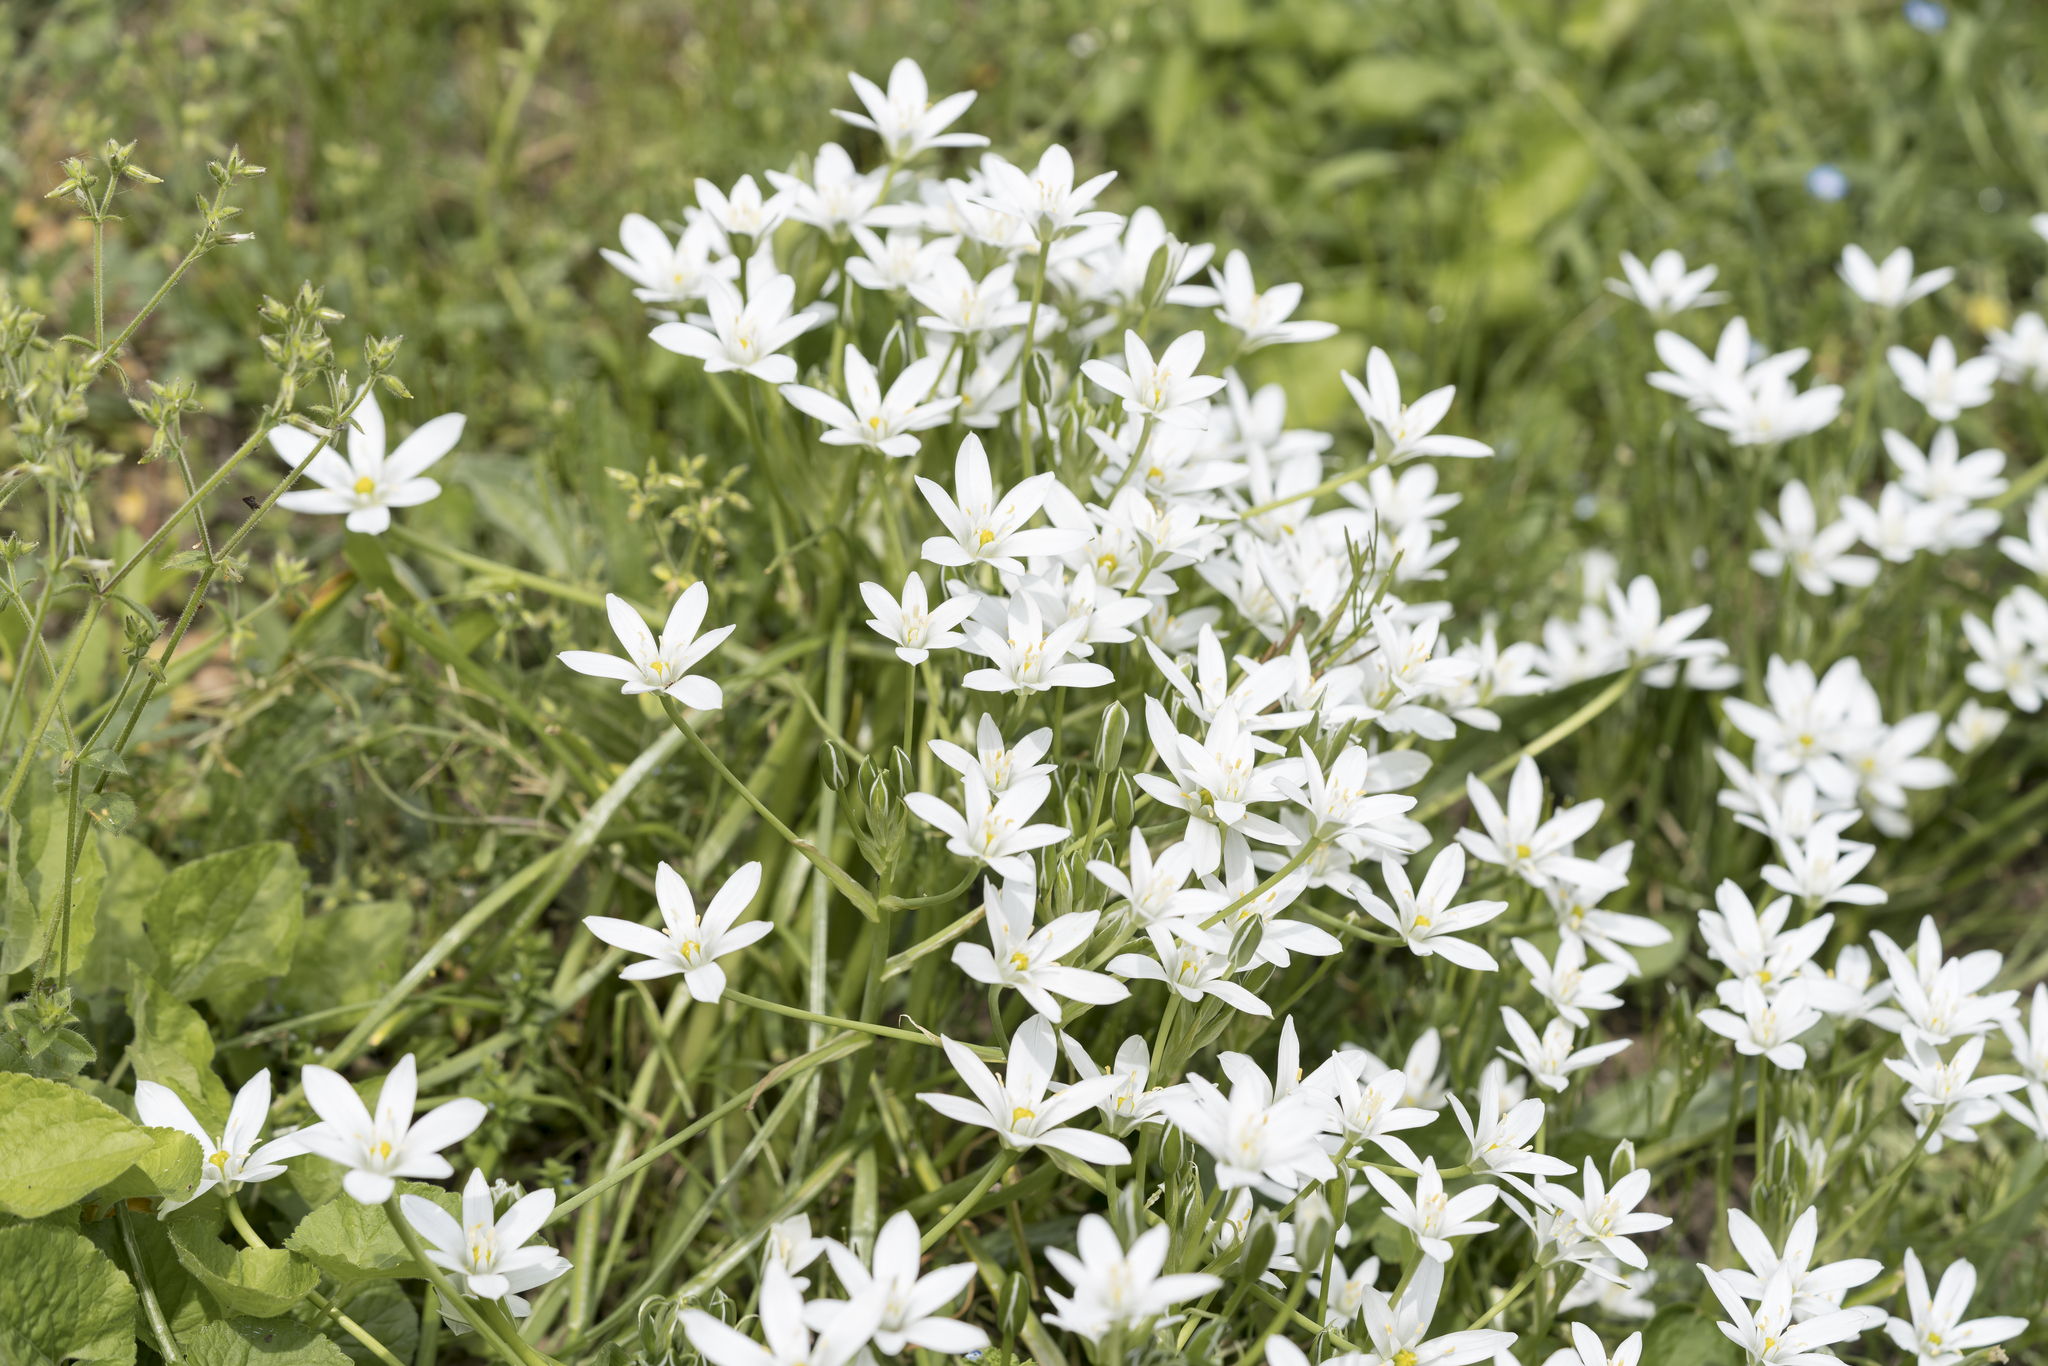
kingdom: Plantae
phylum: Tracheophyta
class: Liliopsida
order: Asparagales
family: Asparagaceae
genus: Ornithogalum
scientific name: Ornithogalum umbellatum
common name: Garden star-of-bethlehem
